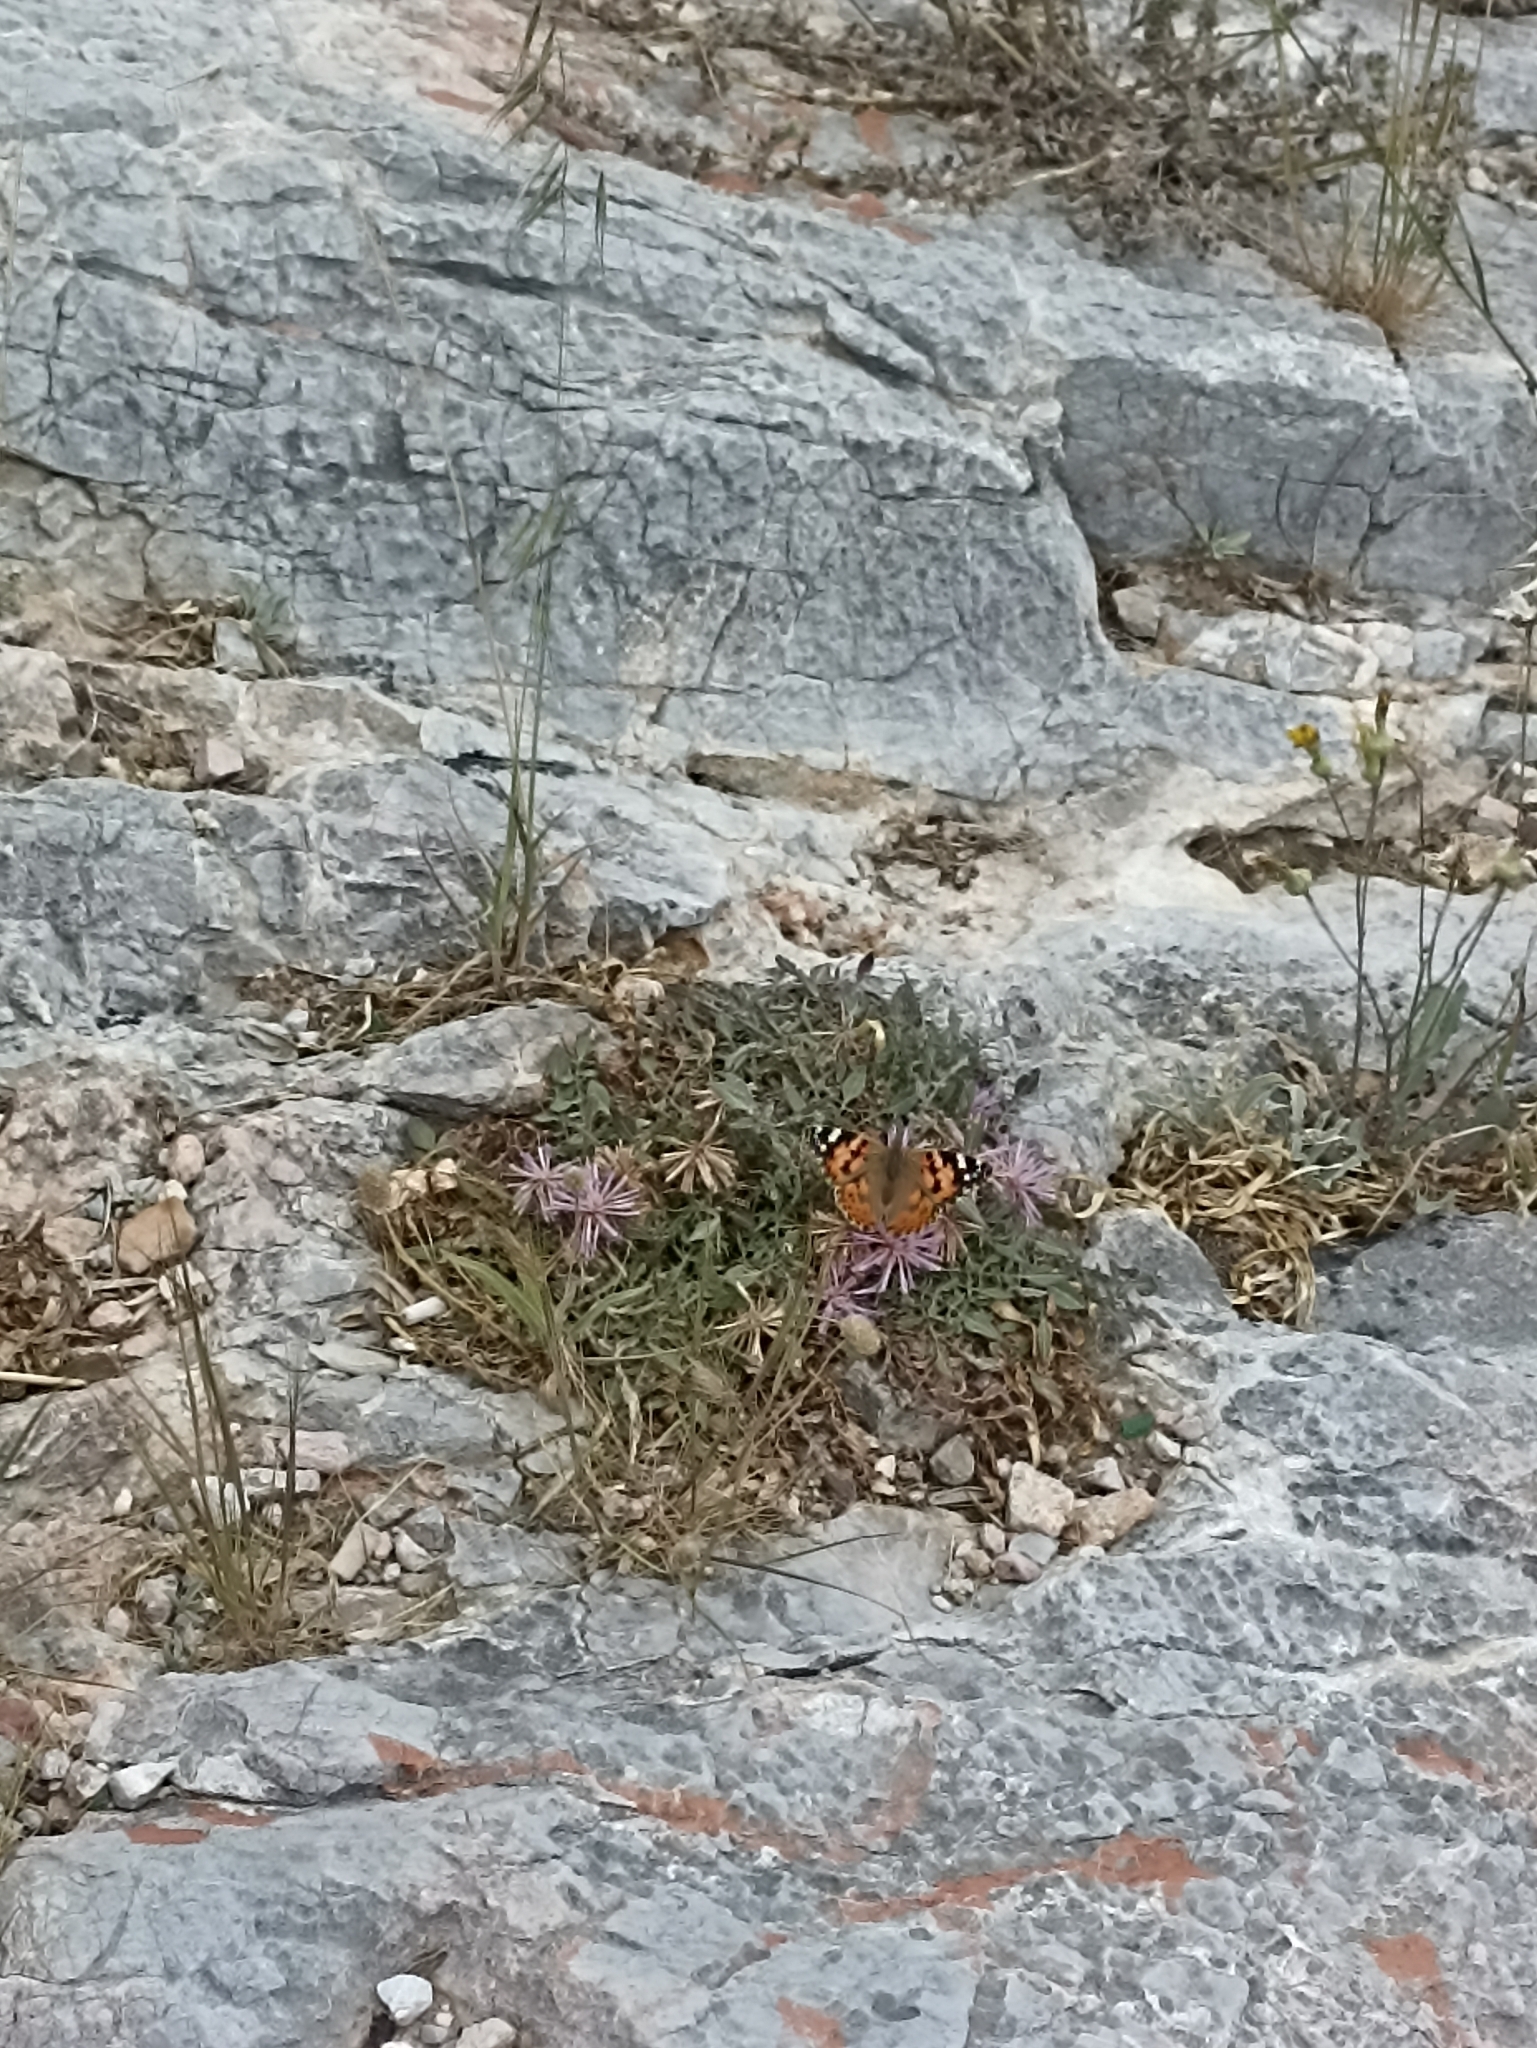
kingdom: Animalia
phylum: Arthropoda
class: Insecta
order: Lepidoptera
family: Nymphalidae
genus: Vanessa
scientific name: Vanessa cardui
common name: Painted lady
